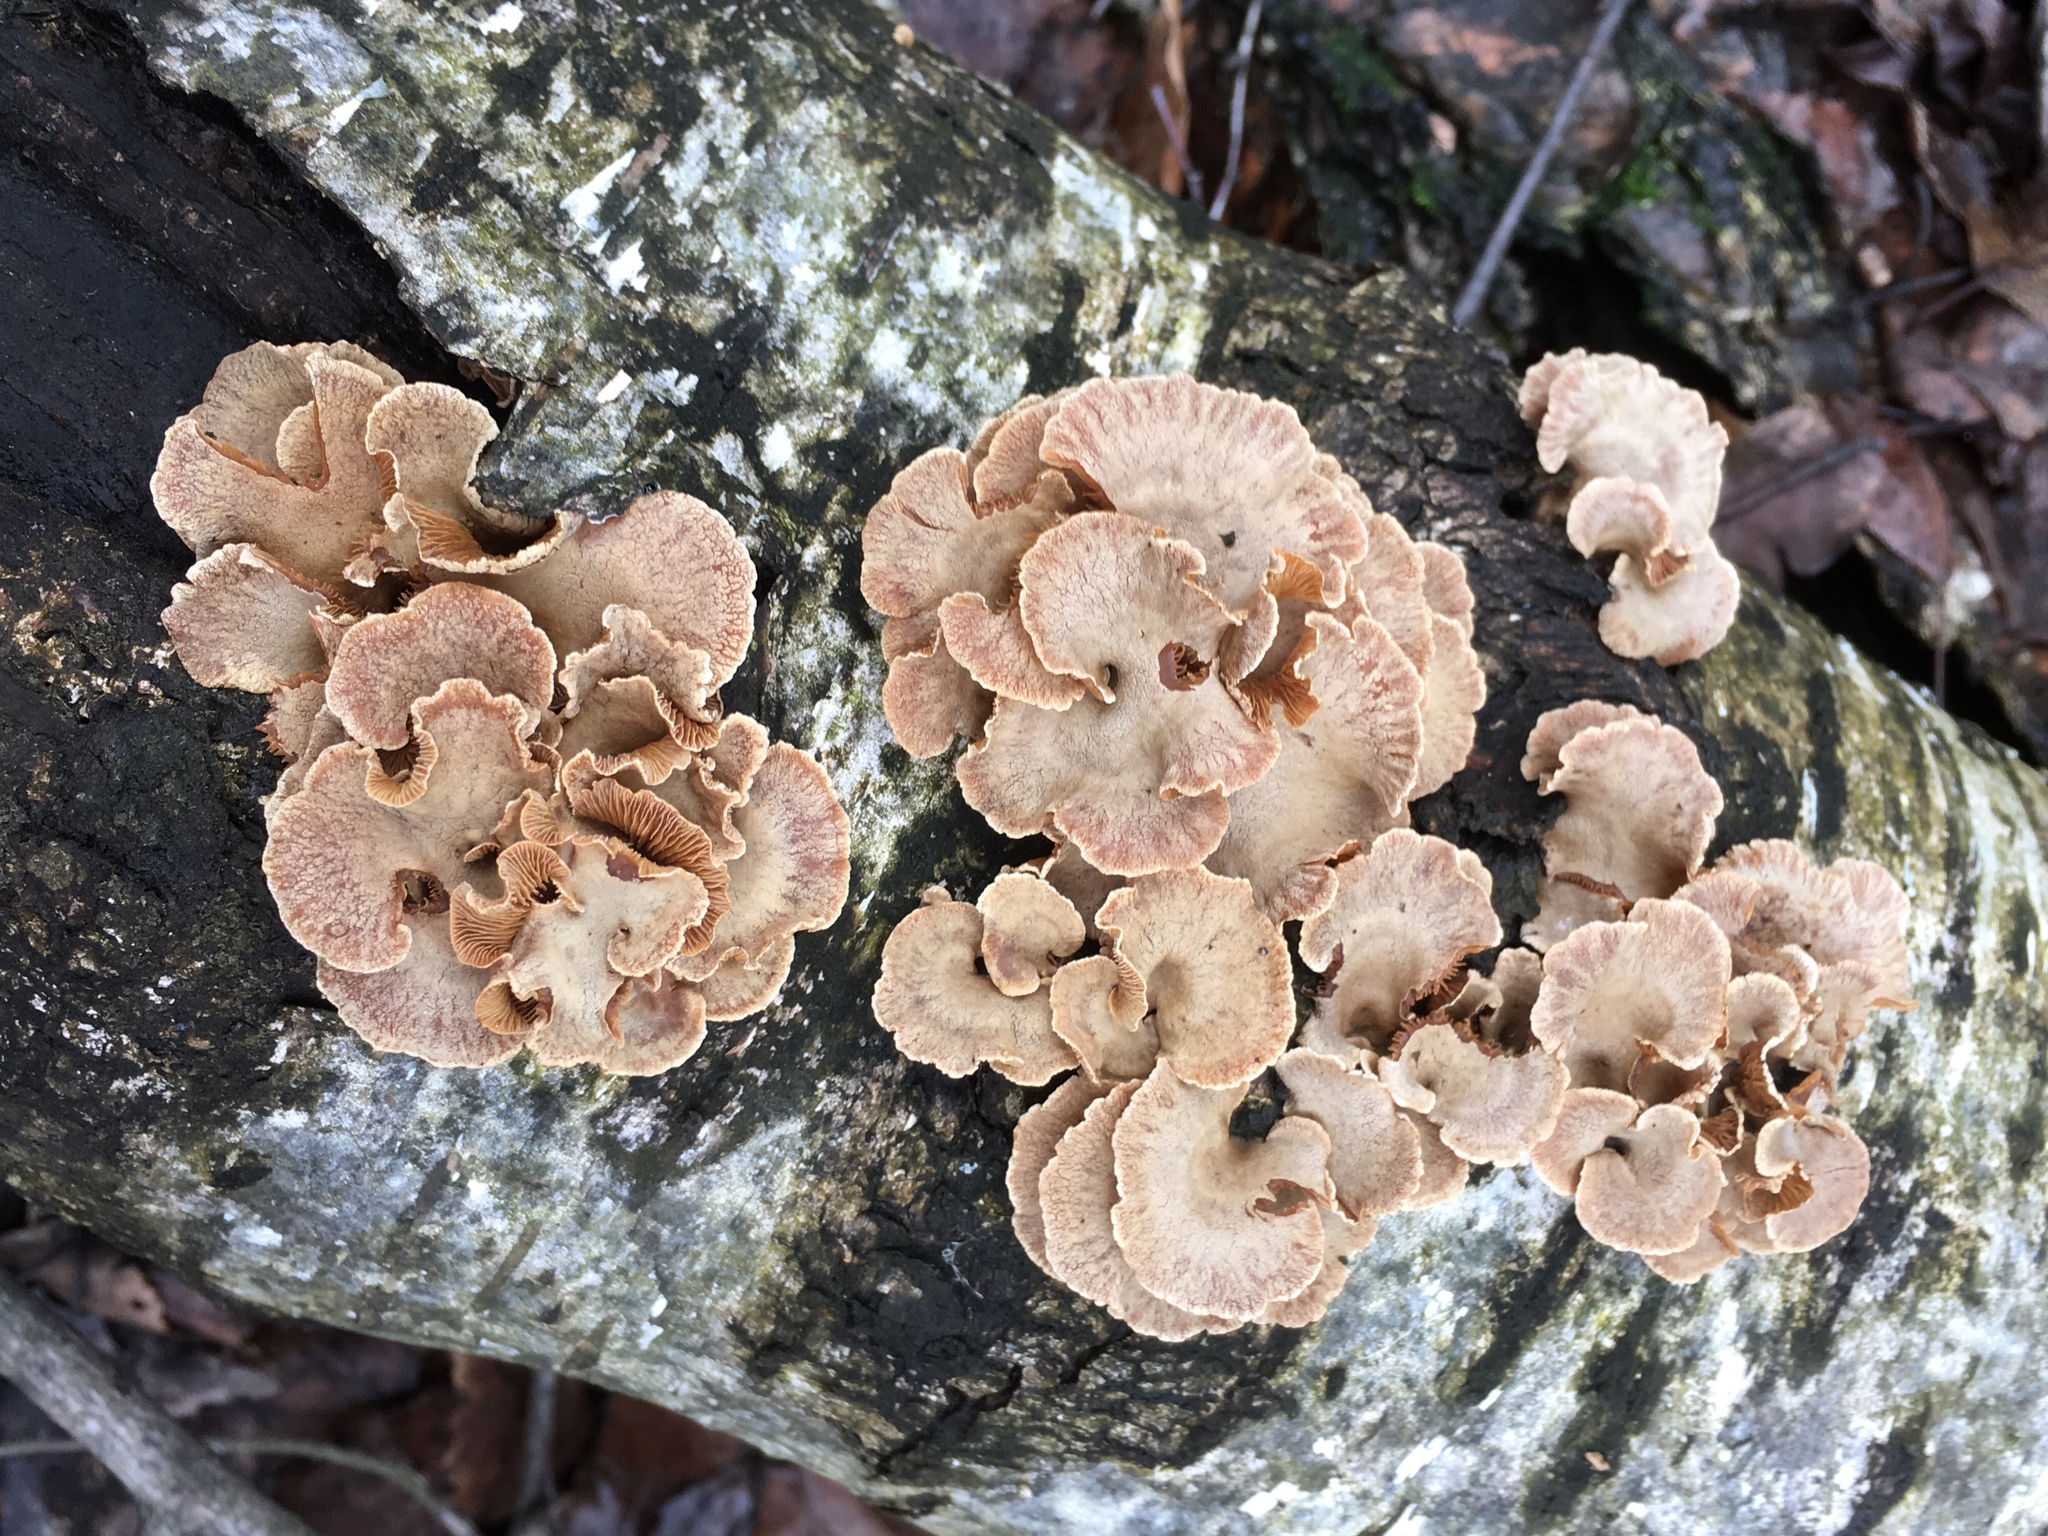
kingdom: Fungi
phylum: Basidiomycota
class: Agaricomycetes
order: Agaricales
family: Mycenaceae
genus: Panellus
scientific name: Panellus stipticus
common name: Bitter oysterling
